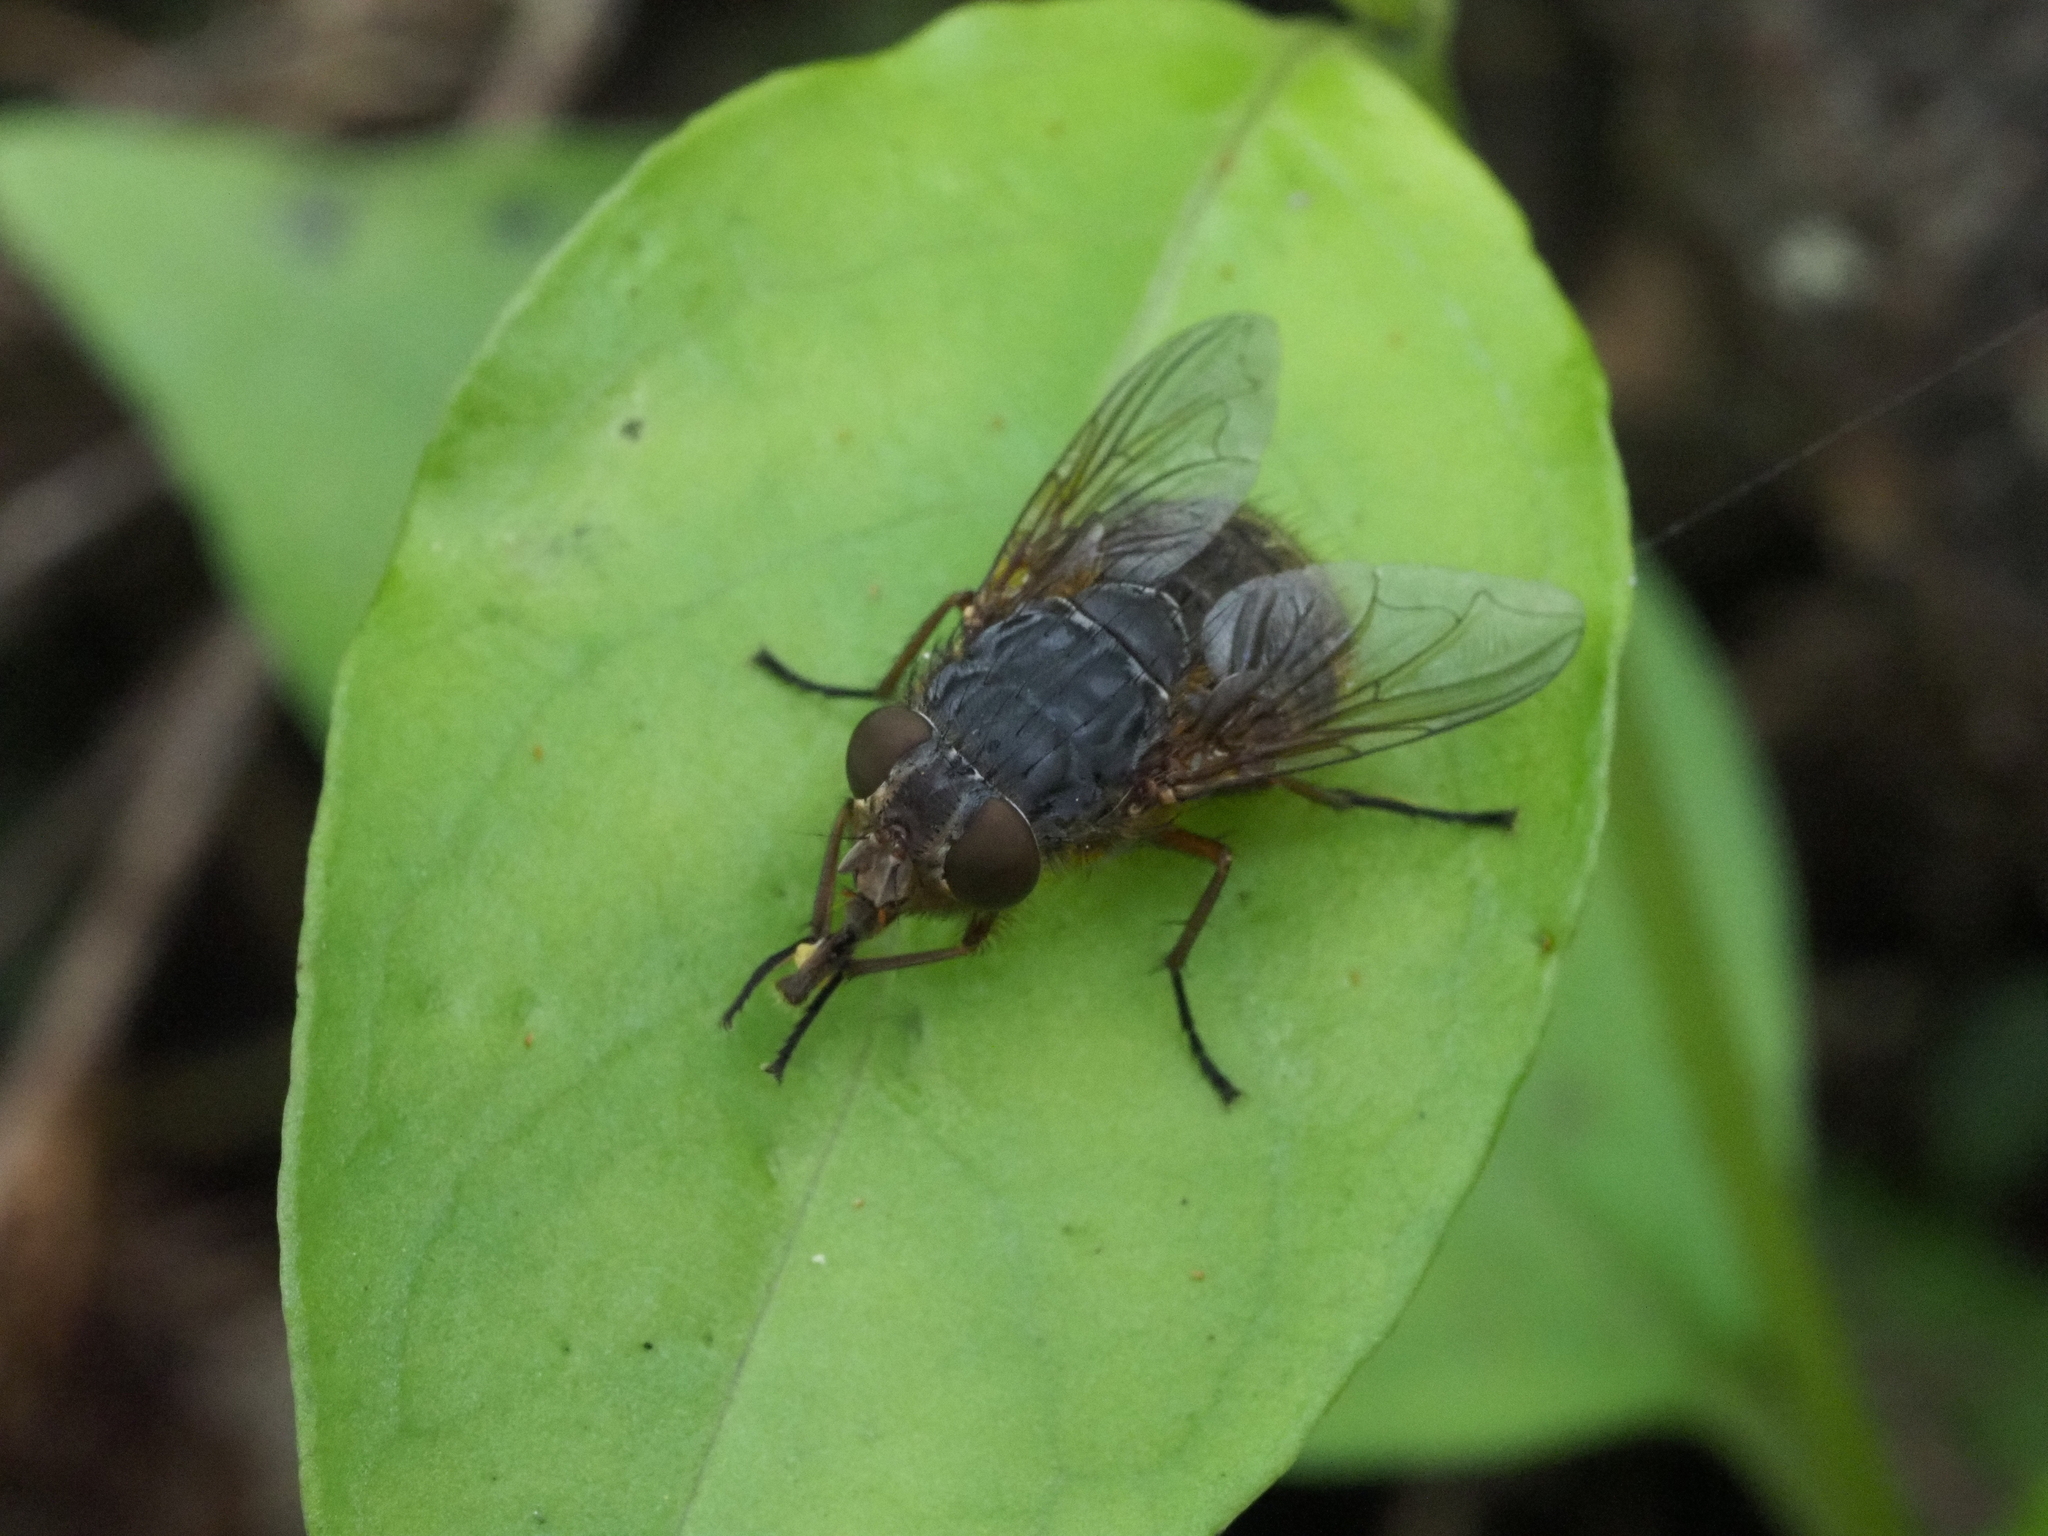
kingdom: Animalia
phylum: Arthropoda
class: Insecta
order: Diptera
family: Calliphoridae
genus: Calliphora
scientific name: Calliphora stygia
